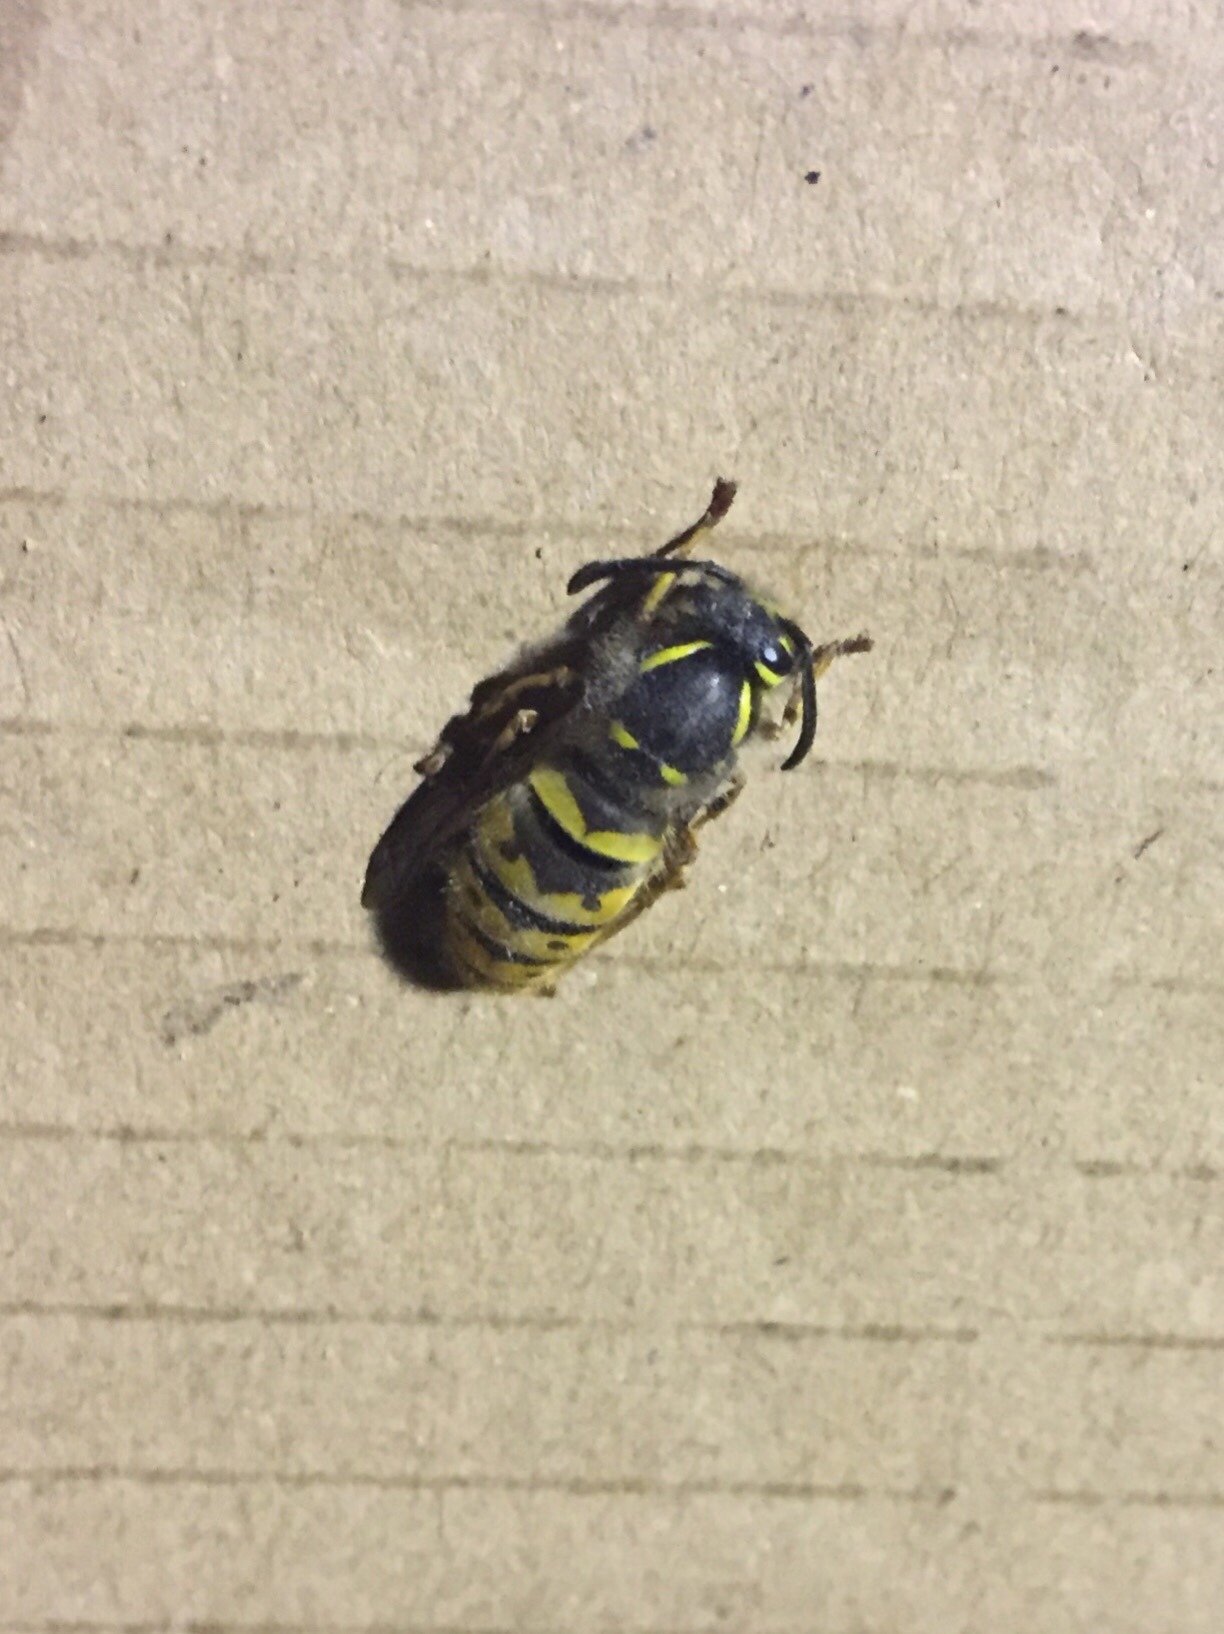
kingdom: Animalia
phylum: Arthropoda
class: Insecta
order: Hymenoptera
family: Vespidae
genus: Vespula
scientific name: Vespula vulgaris
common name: Common wasp
